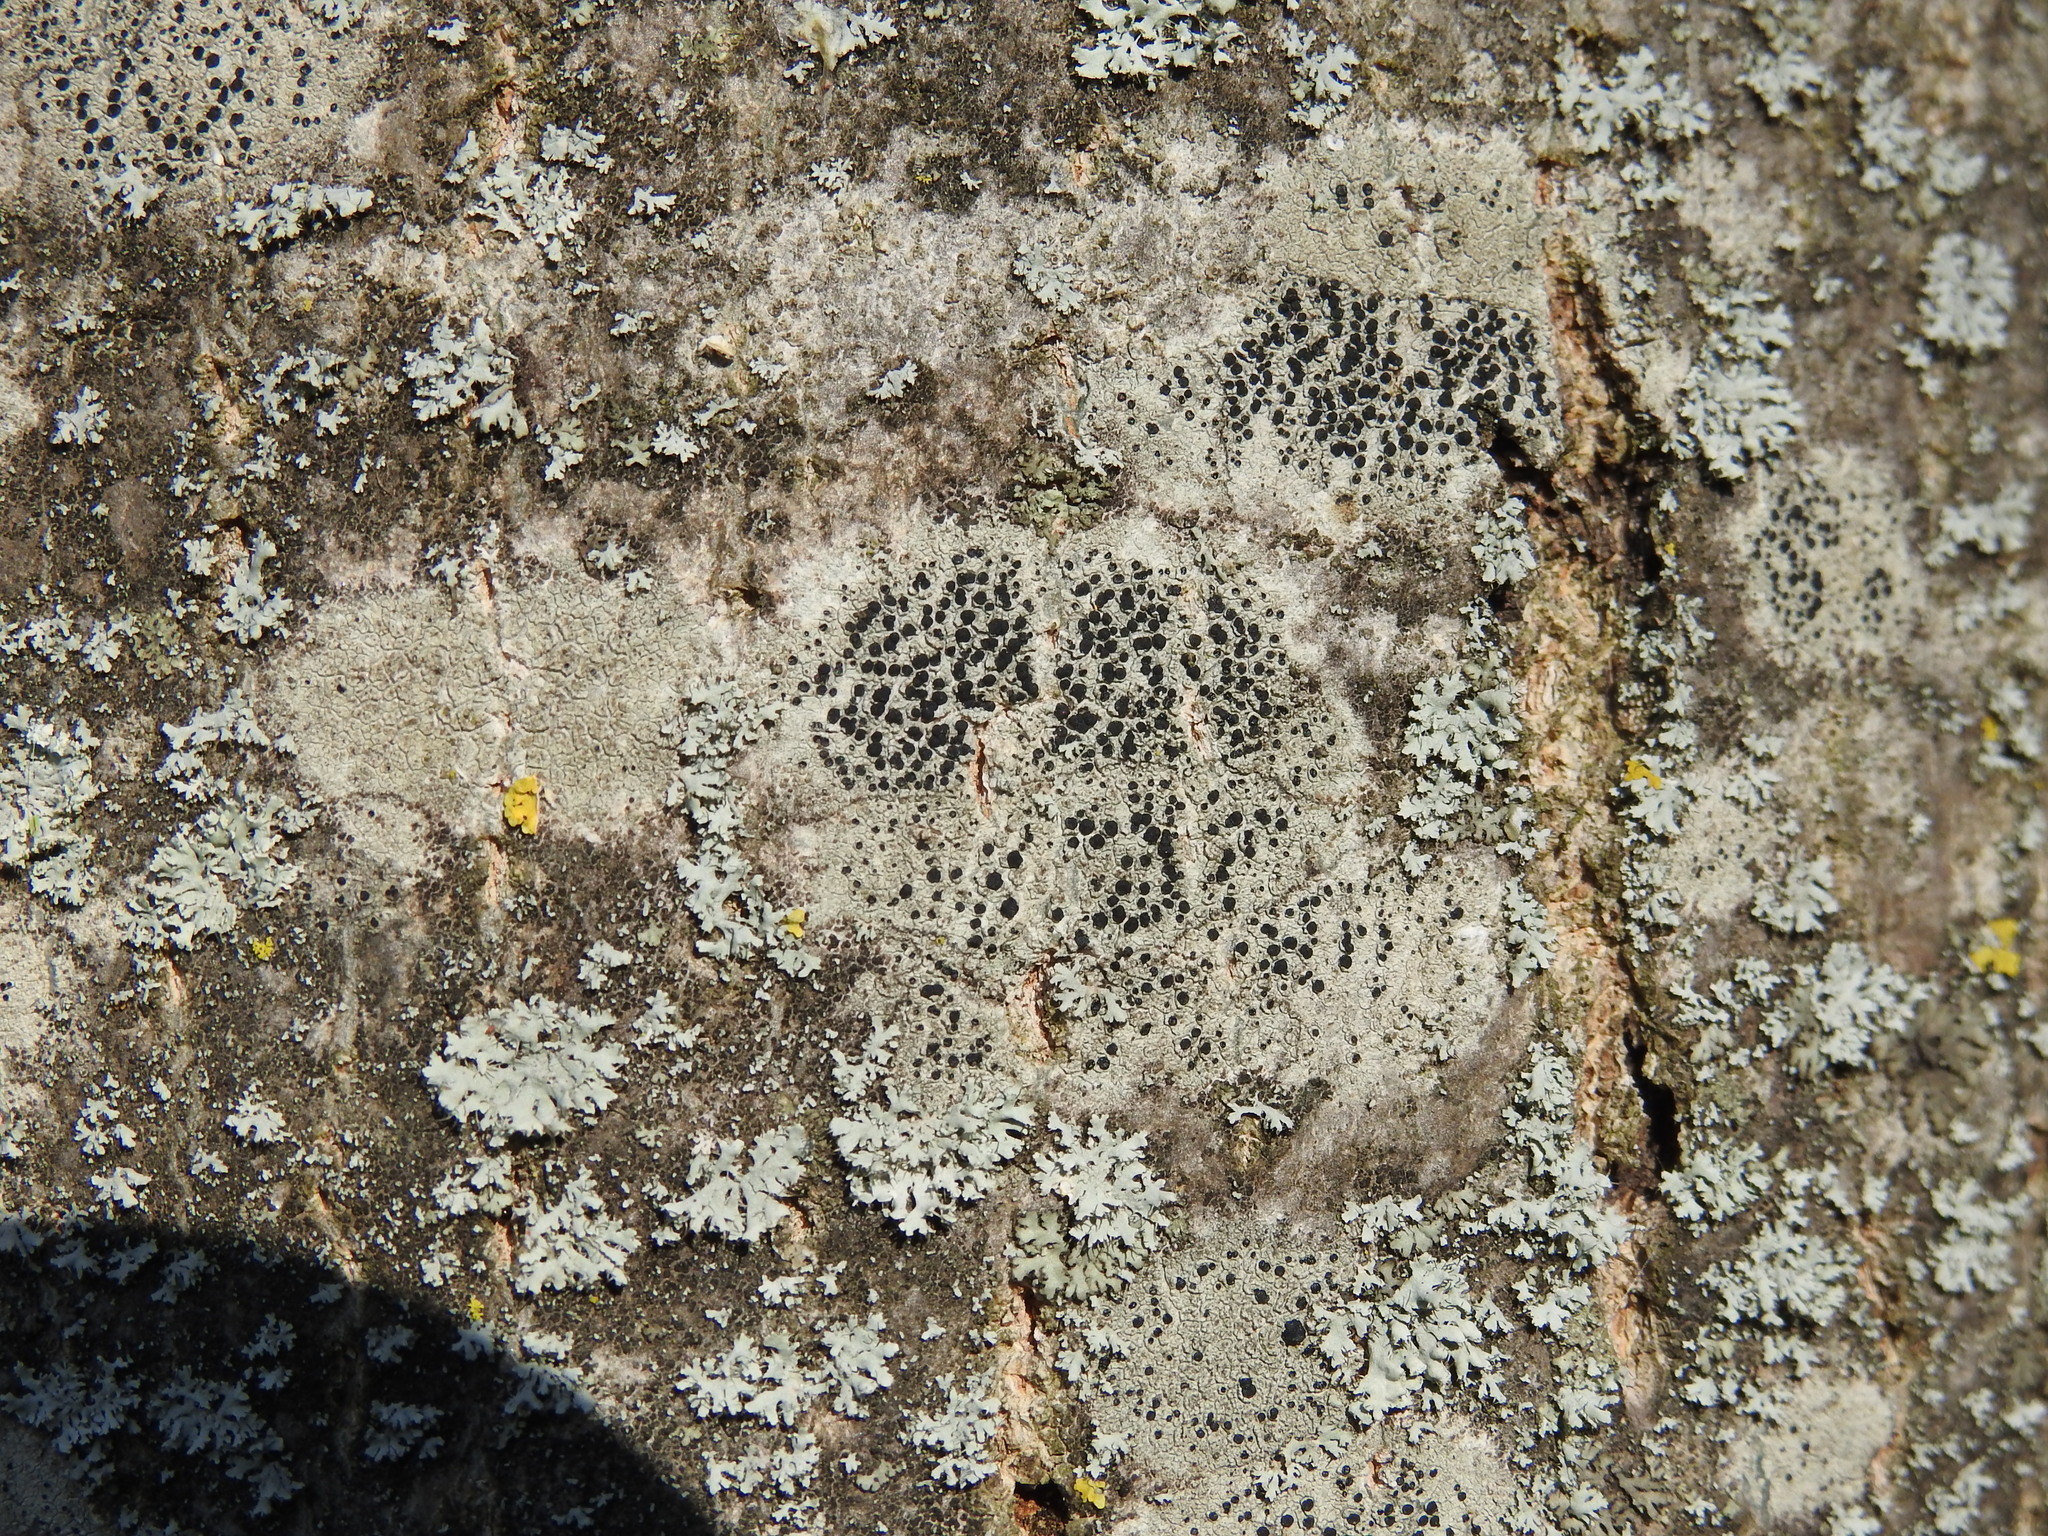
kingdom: Fungi
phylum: Ascomycota
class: Lecanoromycetes
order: Lecanorales
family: Lecanoraceae
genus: Lecidella
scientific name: Lecidella elaeochroma
